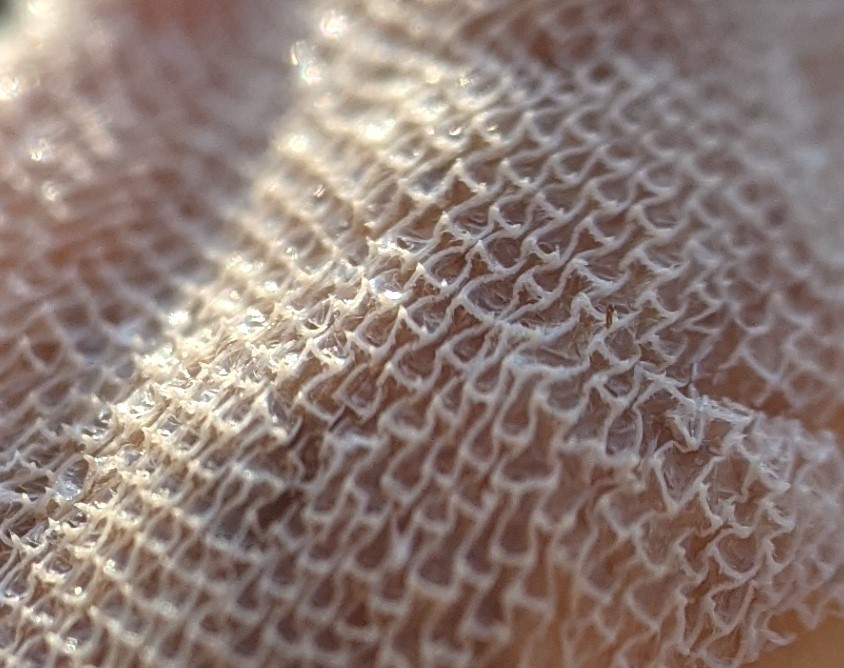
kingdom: Animalia
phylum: Bryozoa
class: Gymnolaemata
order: Cheilostomatida
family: Membraniporidae
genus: Membranipora
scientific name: Membranipora membranacea
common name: Sea mat
